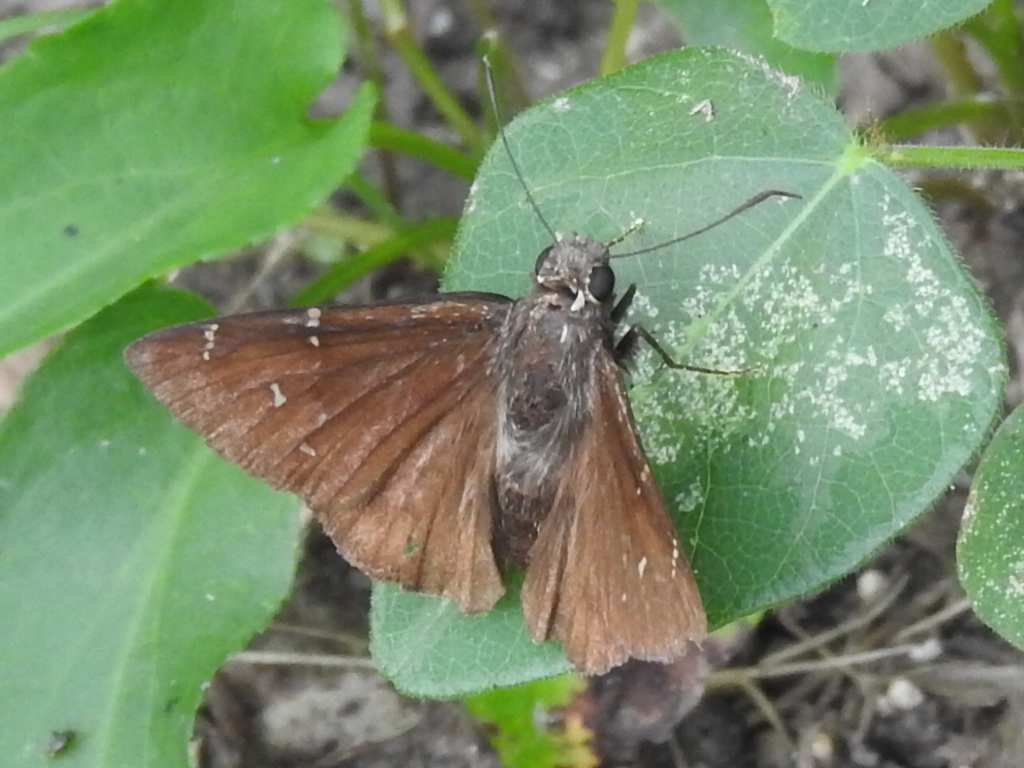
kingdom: Animalia
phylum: Arthropoda
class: Insecta
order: Lepidoptera
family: Hesperiidae
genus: Thorybes
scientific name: Thorybes pylades
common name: Northern cloudywing
